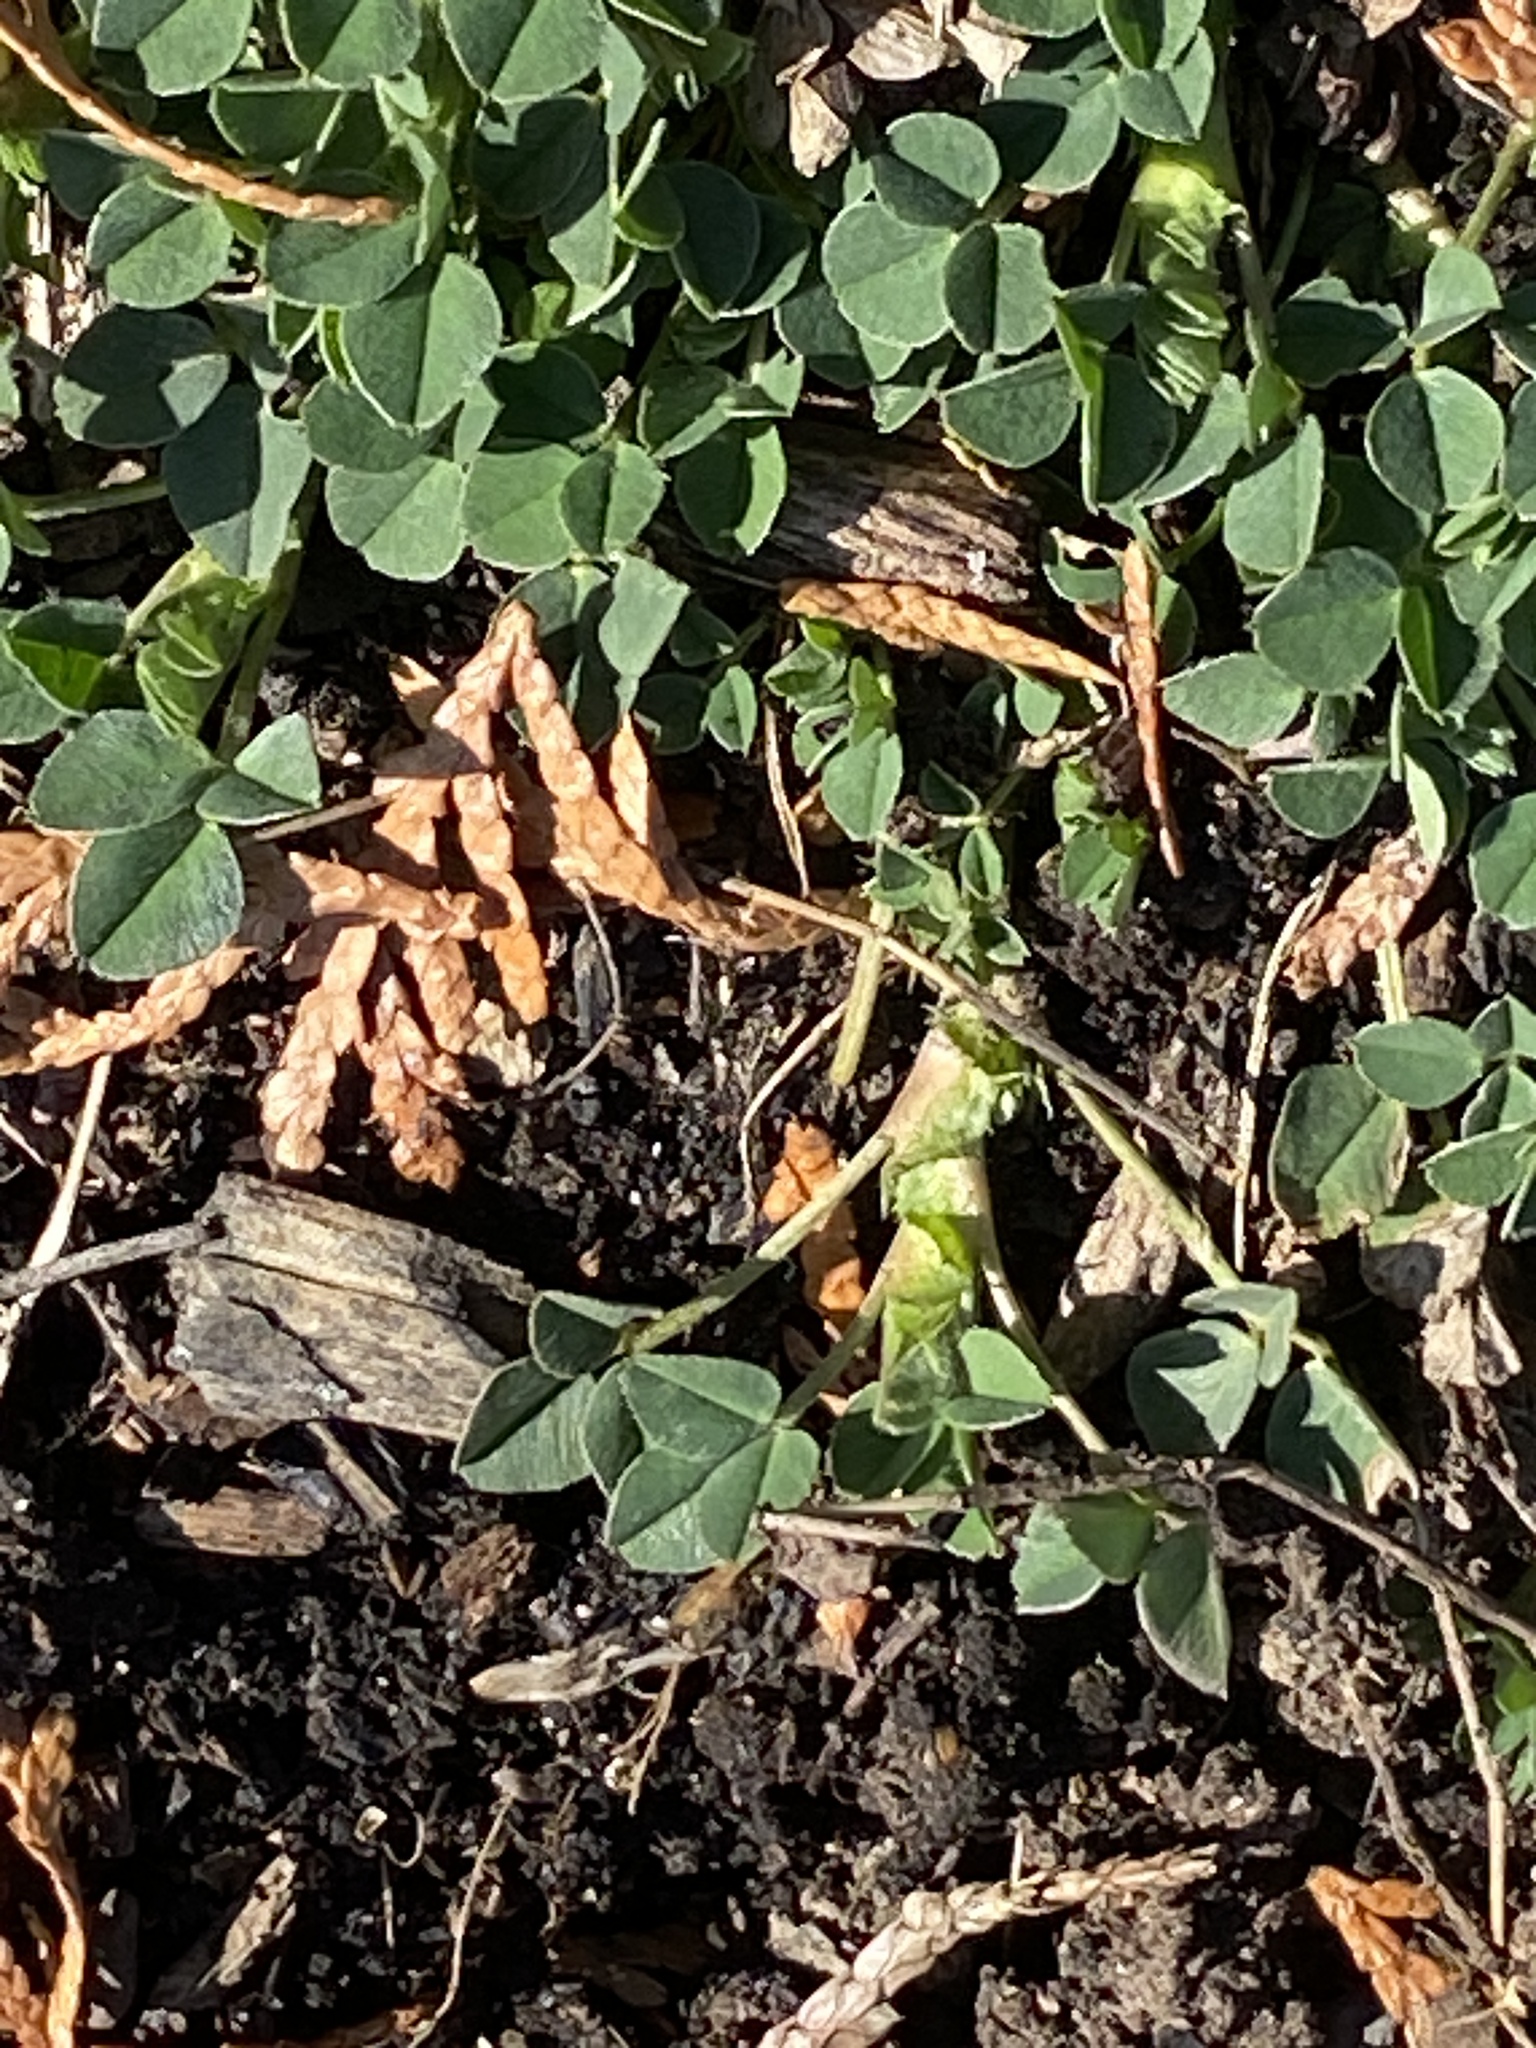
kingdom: Plantae
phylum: Tracheophyta
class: Magnoliopsida
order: Fabales
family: Fabaceae
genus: Medicago
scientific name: Medicago lupulina
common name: Black medick
